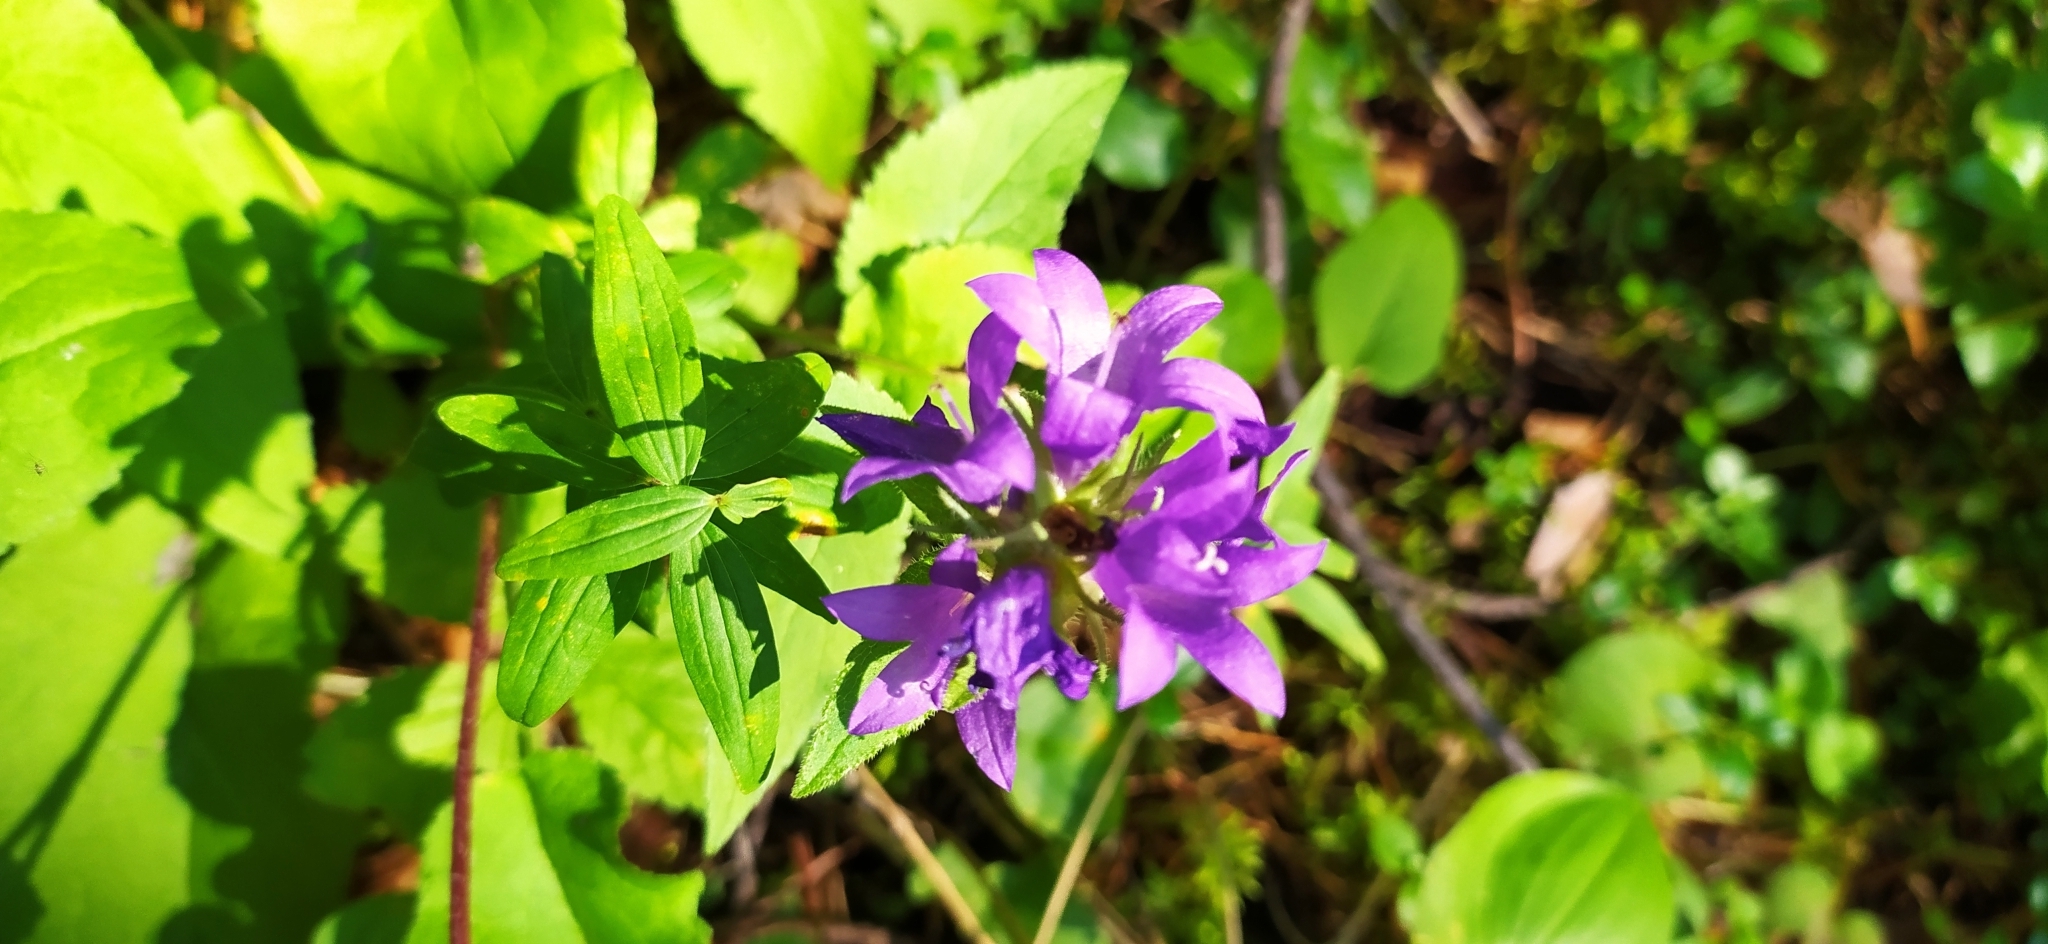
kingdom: Plantae
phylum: Tracheophyta
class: Magnoliopsida
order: Asterales
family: Campanulaceae
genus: Campanula
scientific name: Campanula glomerata
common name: Clustered bellflower
